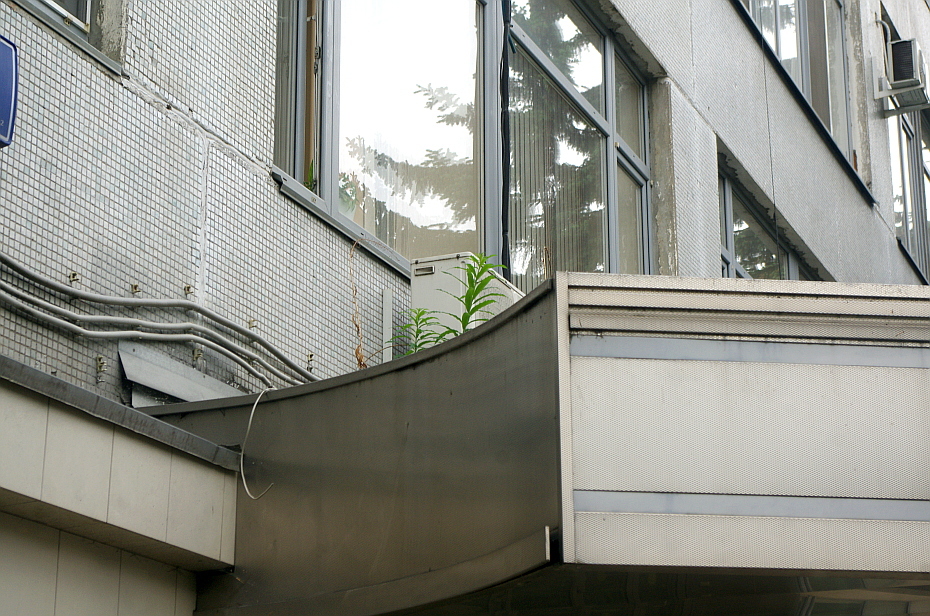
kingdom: Plantae
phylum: Tracheophyta
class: Magnoliopsida
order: Myrtales
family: Onagraceae
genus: Chamaenerion
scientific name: Chamaenerion angustifolium
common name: Fireweed
